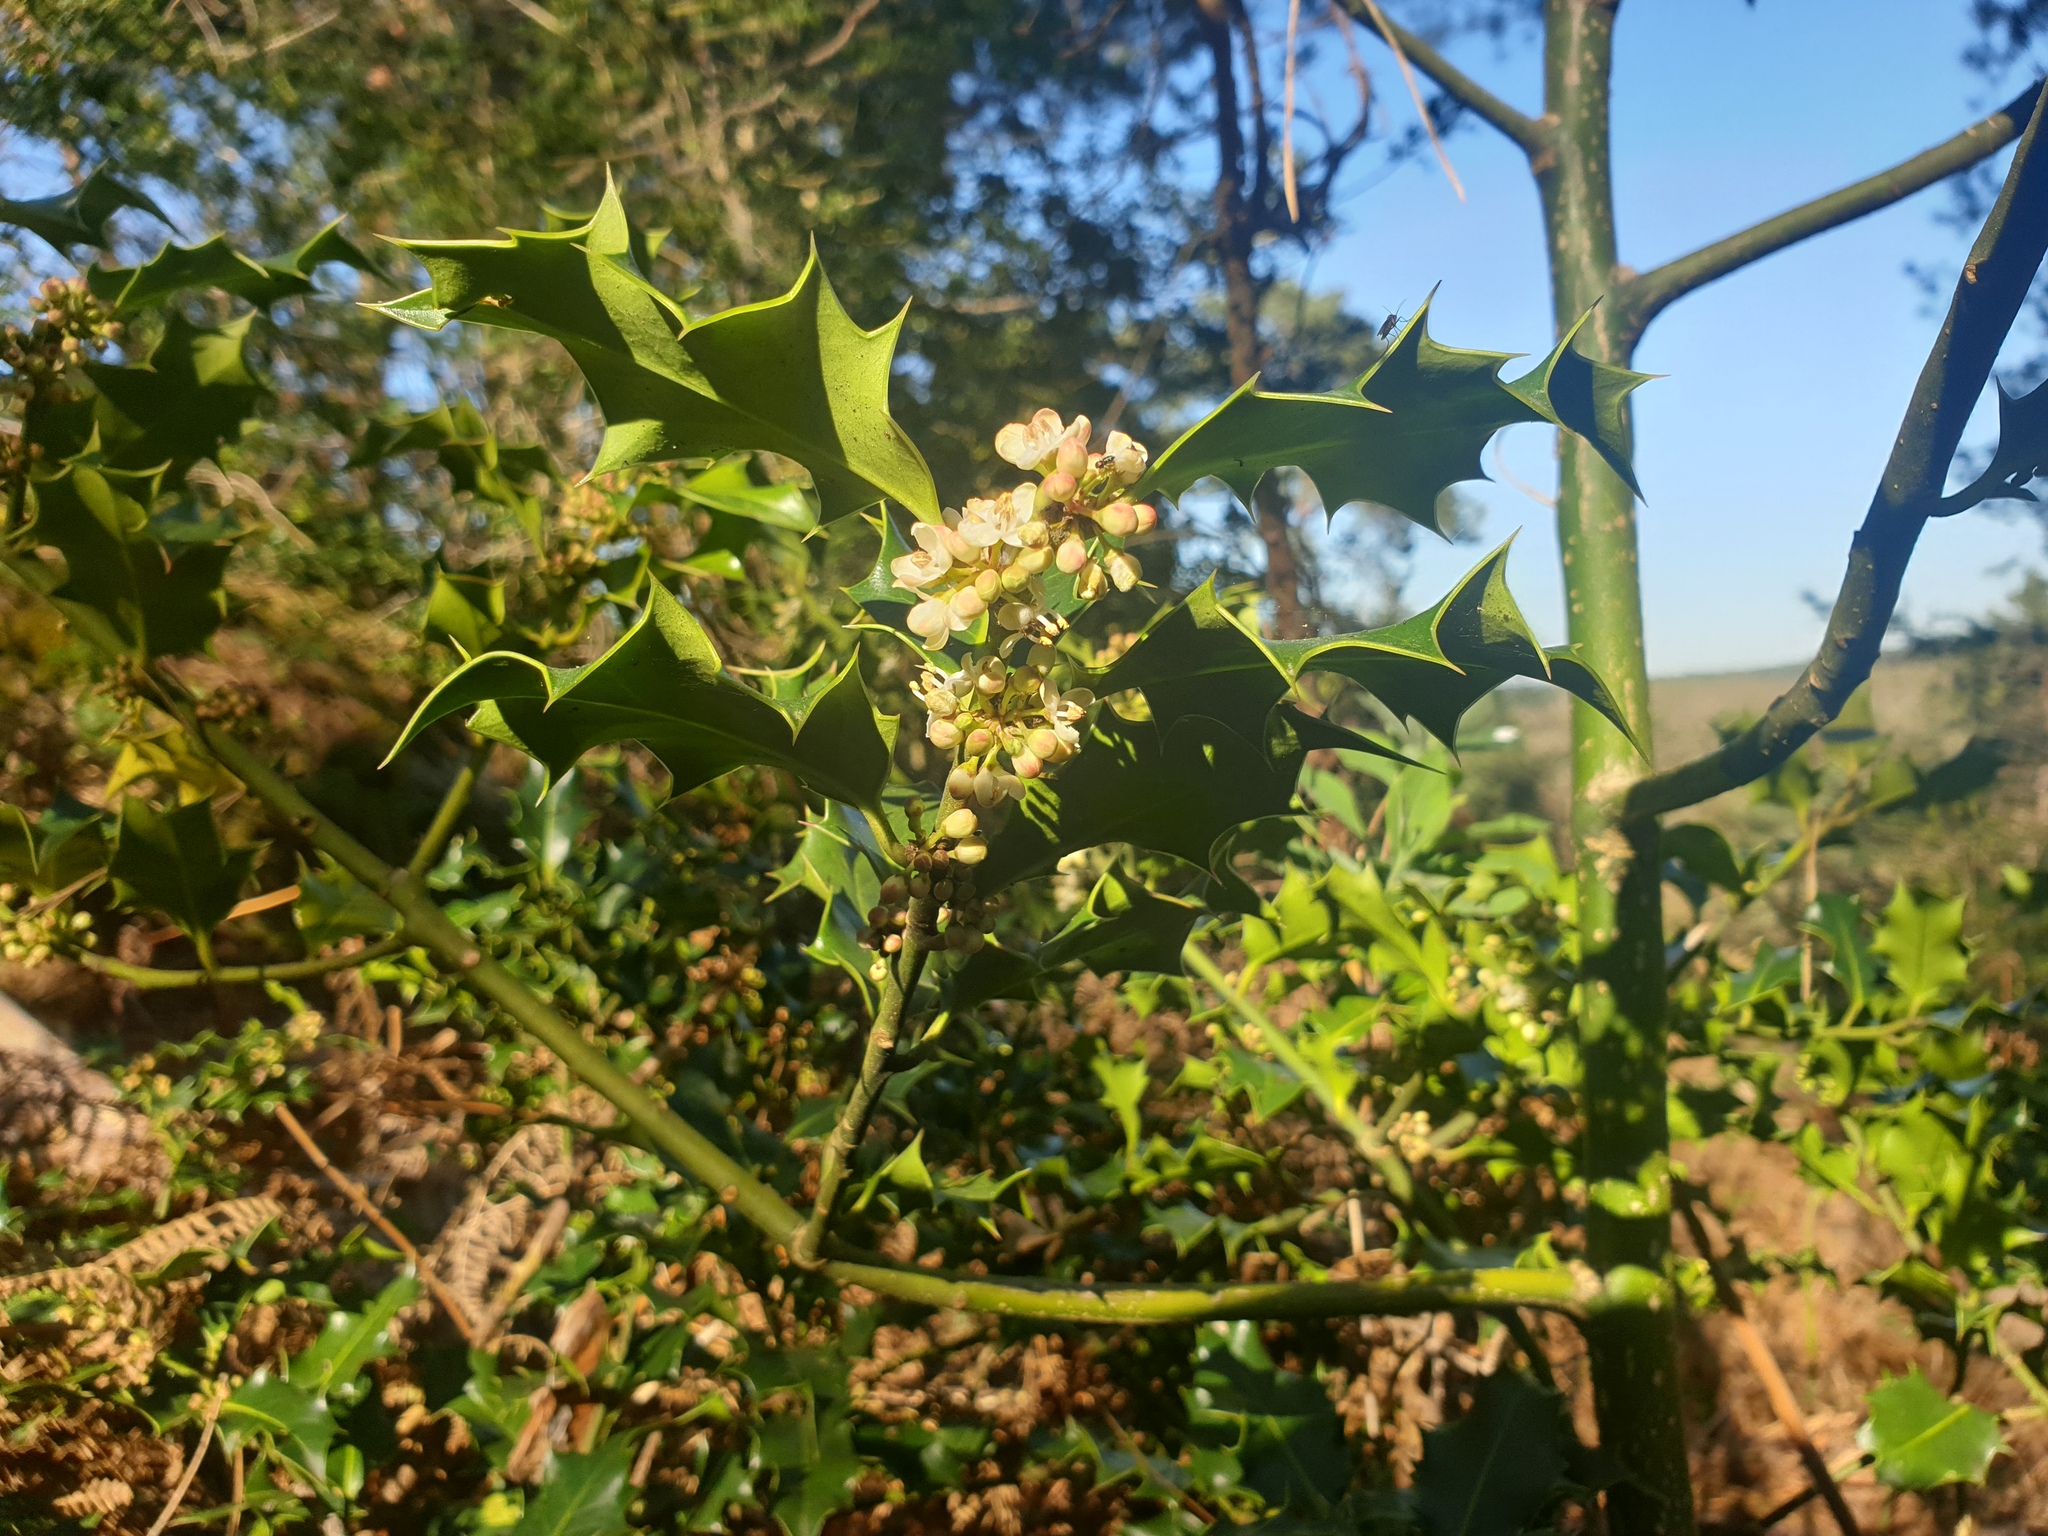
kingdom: Plantae
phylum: Tracheophyta
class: Magnoliopsida
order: Aquifoliales
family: Aquifoliaceae
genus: Ilex
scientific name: Ilex aquifolium
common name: English holly
